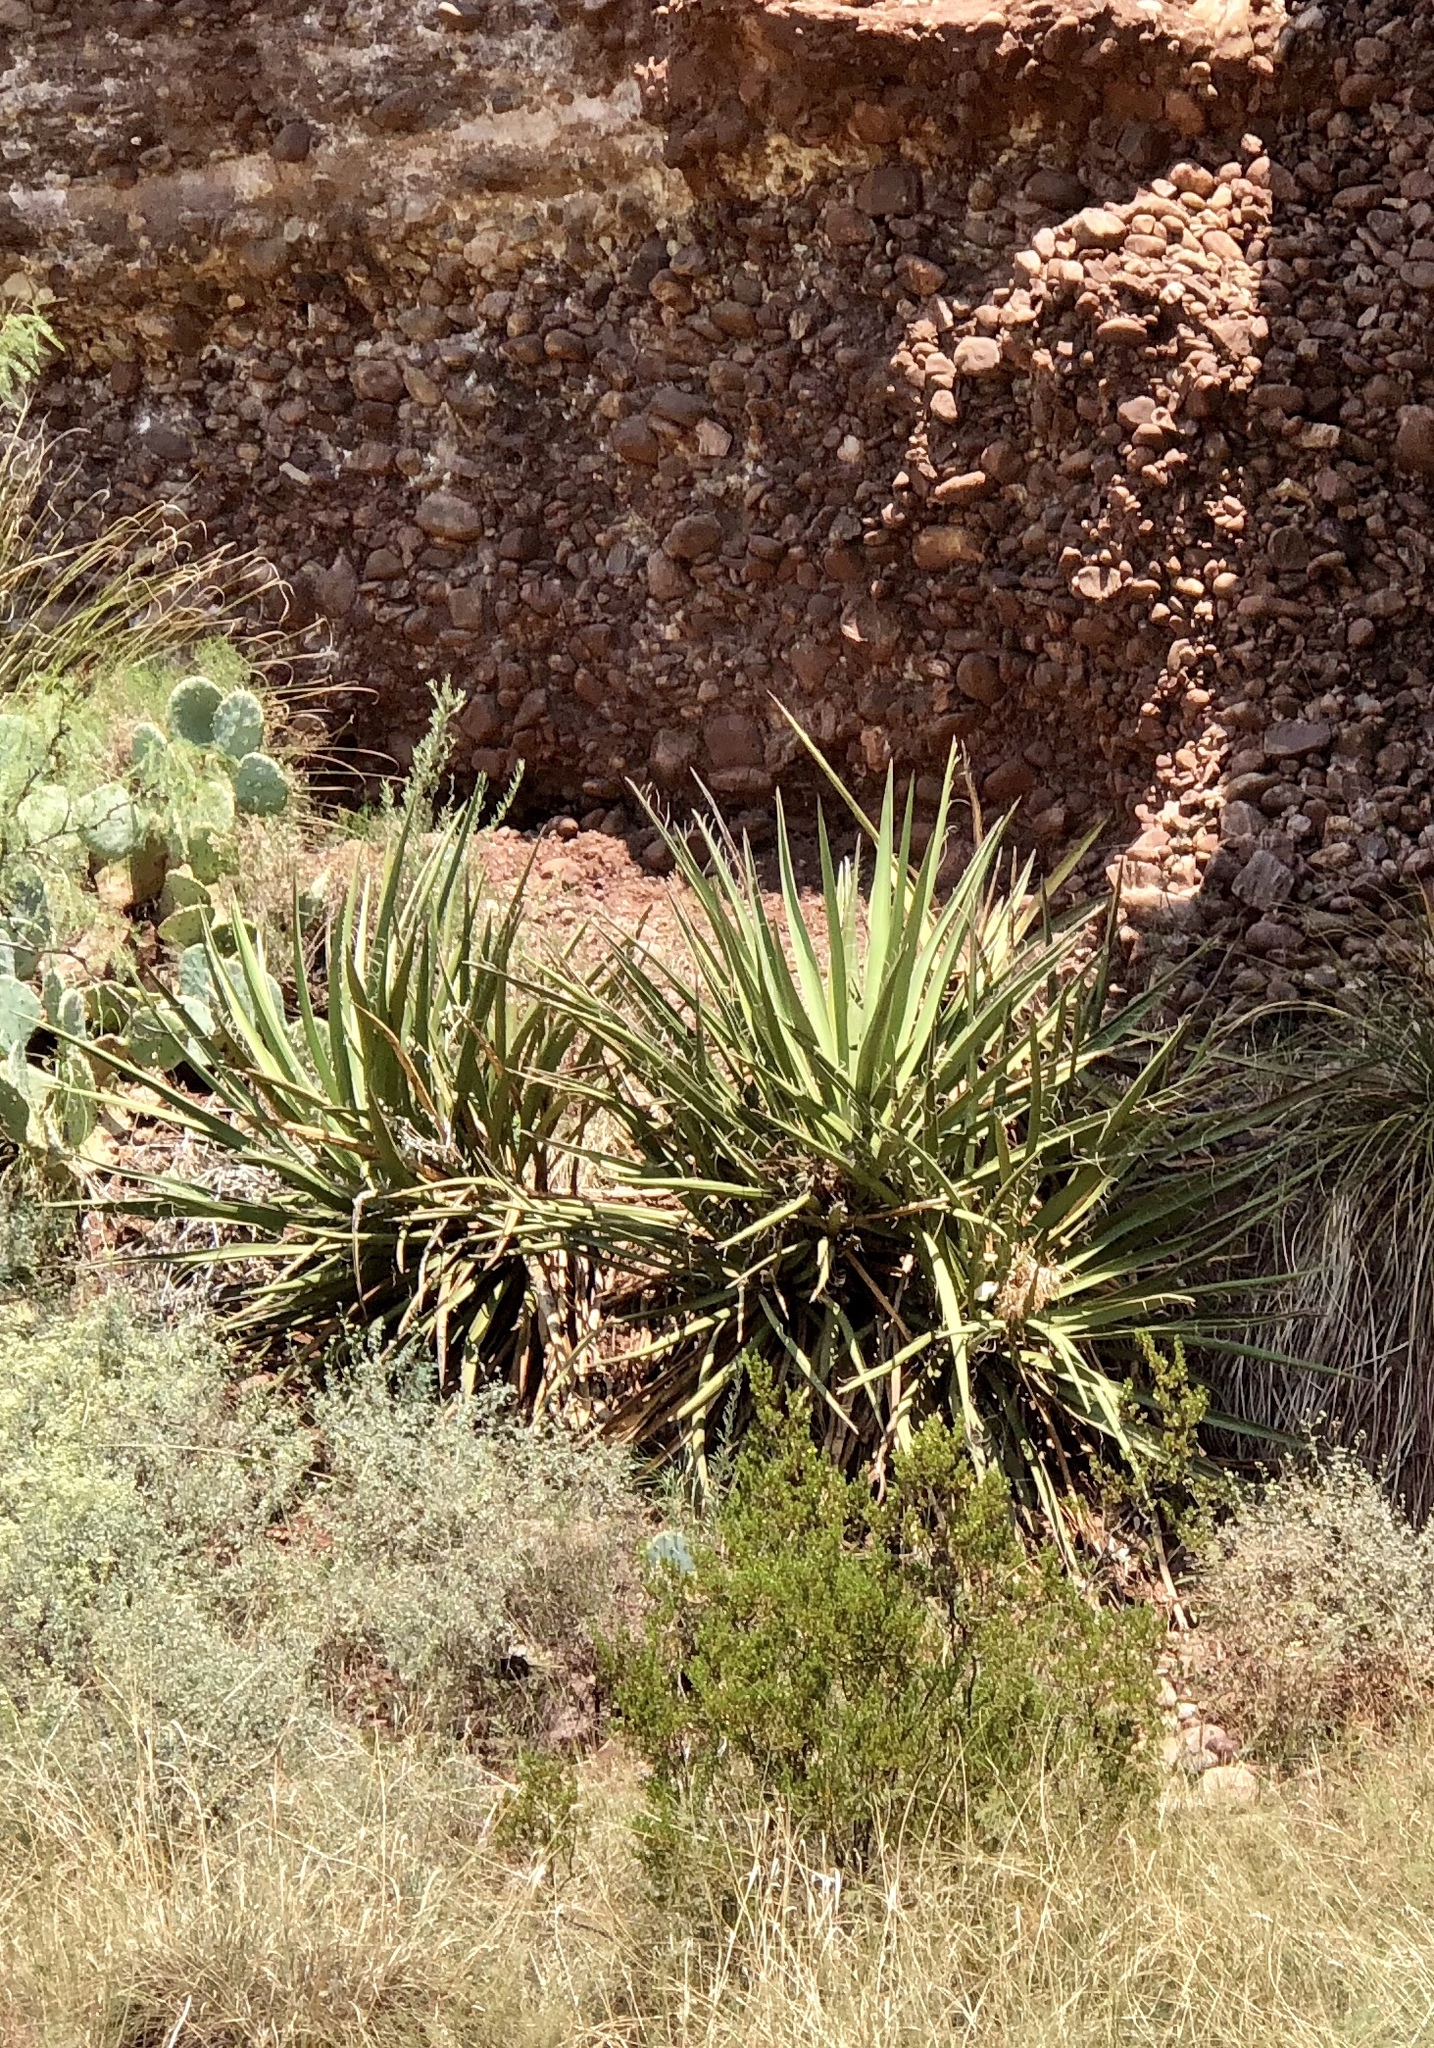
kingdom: Plantae
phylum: Tracheophyta
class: Liliopsida
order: Asparagales
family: Asparagaceae
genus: Yucca
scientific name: Yucca baccata
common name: Banana yucca
